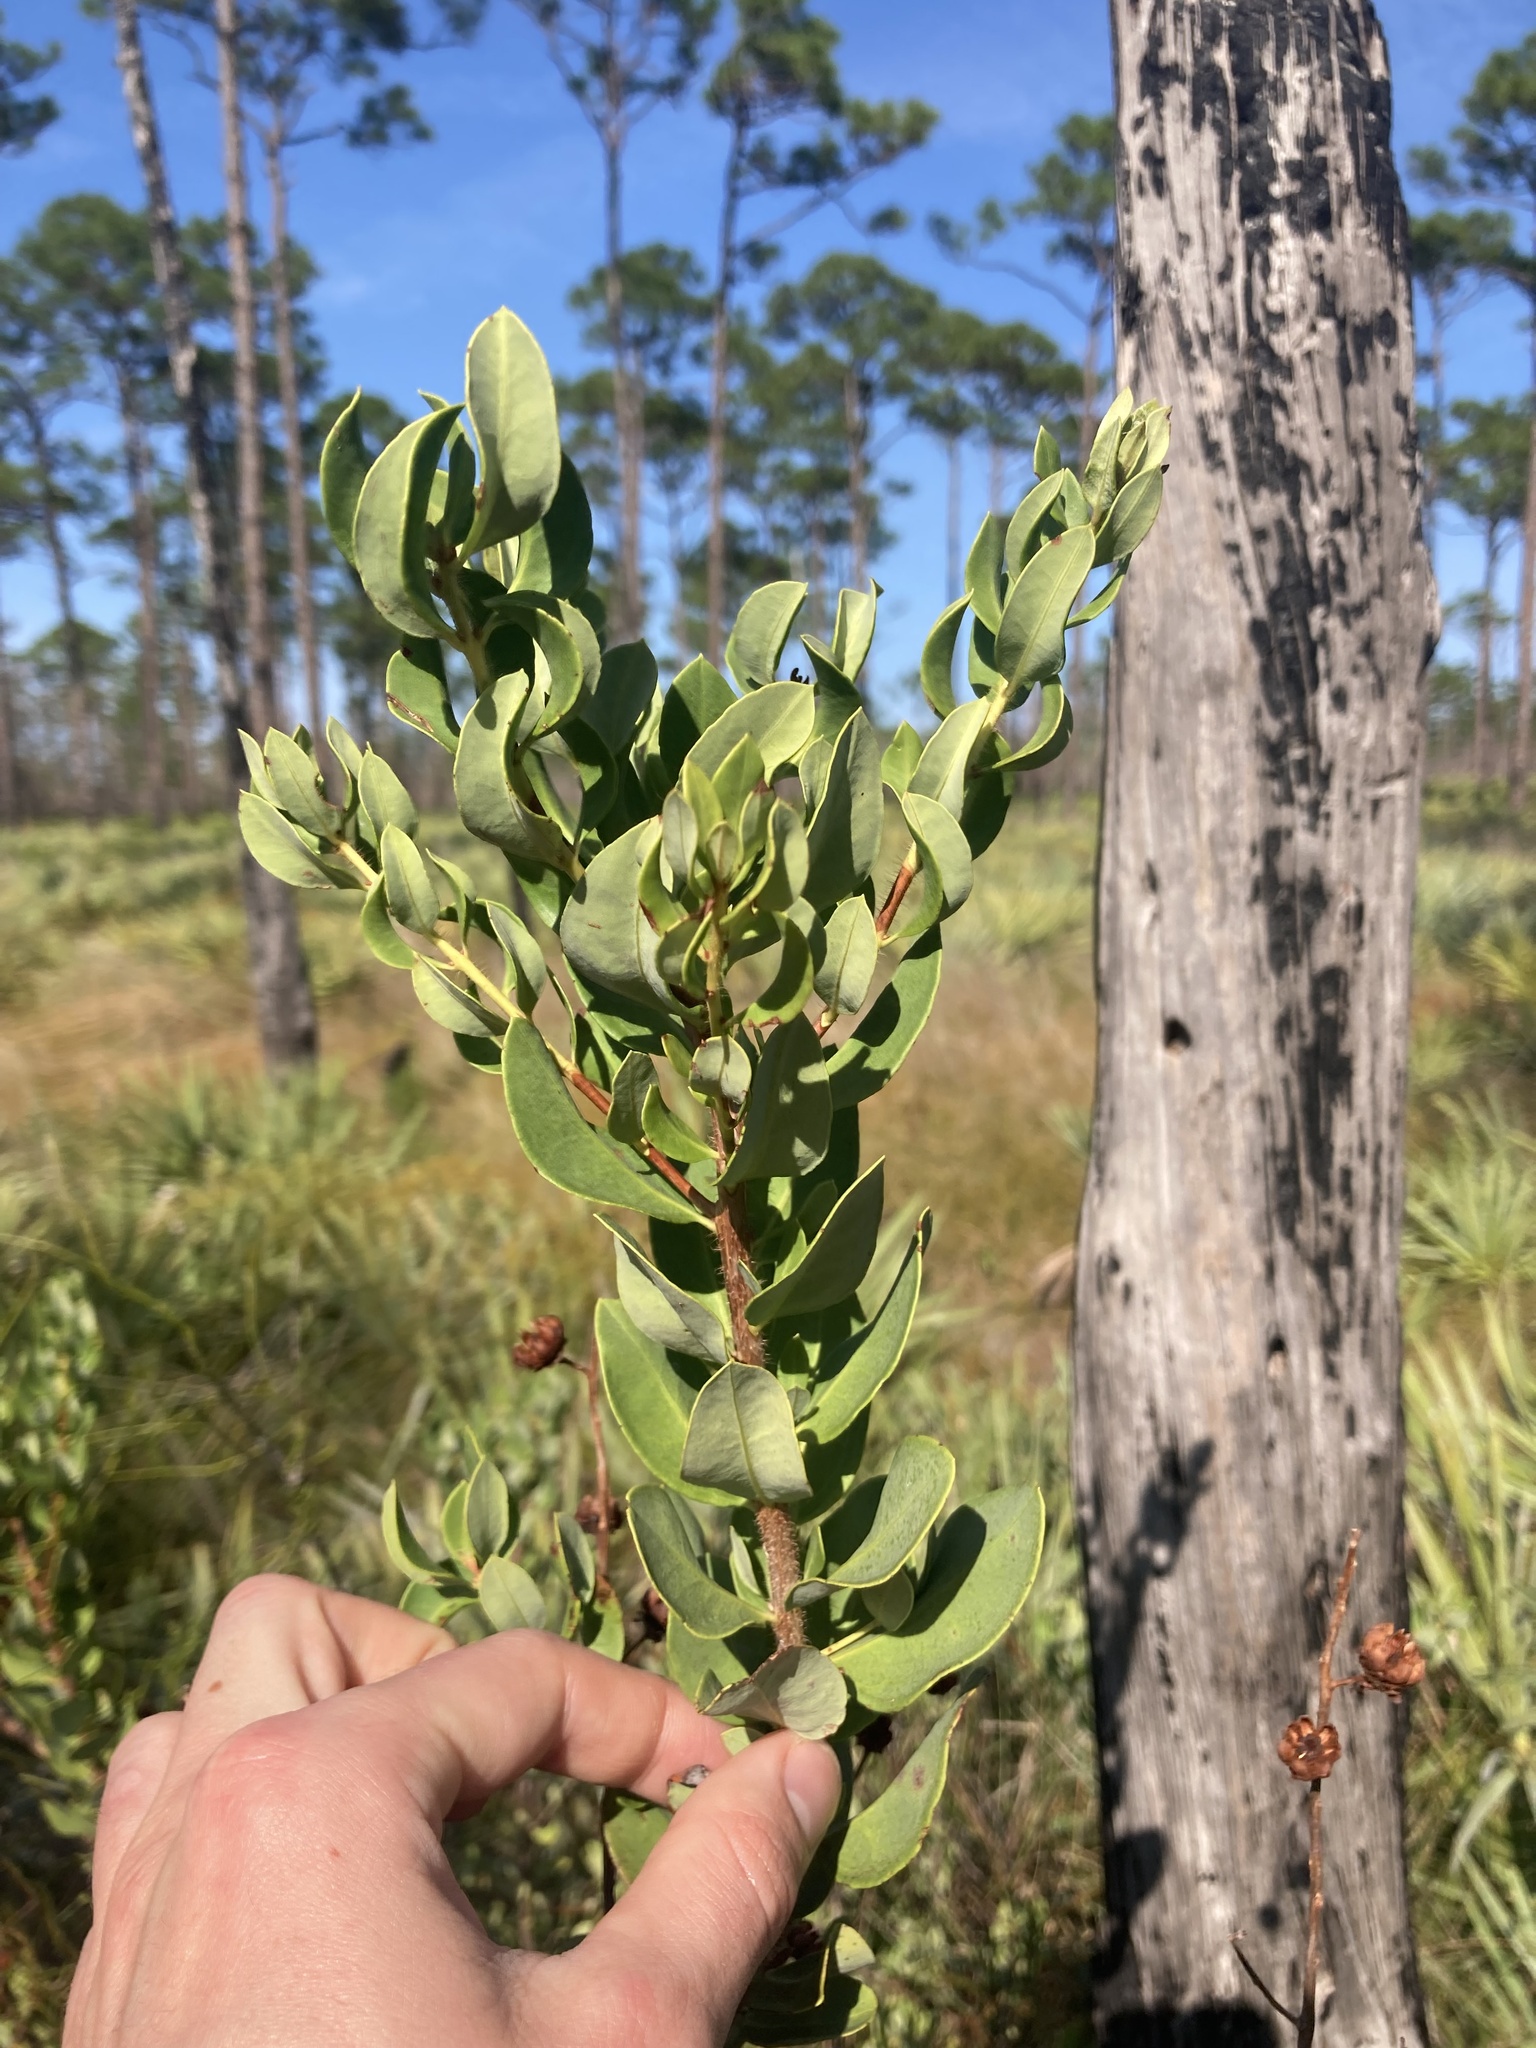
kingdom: Plantae
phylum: Tracheophyta
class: Magnoliopsida
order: Ericales
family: Ericaceae
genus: Bejaria
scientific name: Bejaria racemosa
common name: Tarflower
